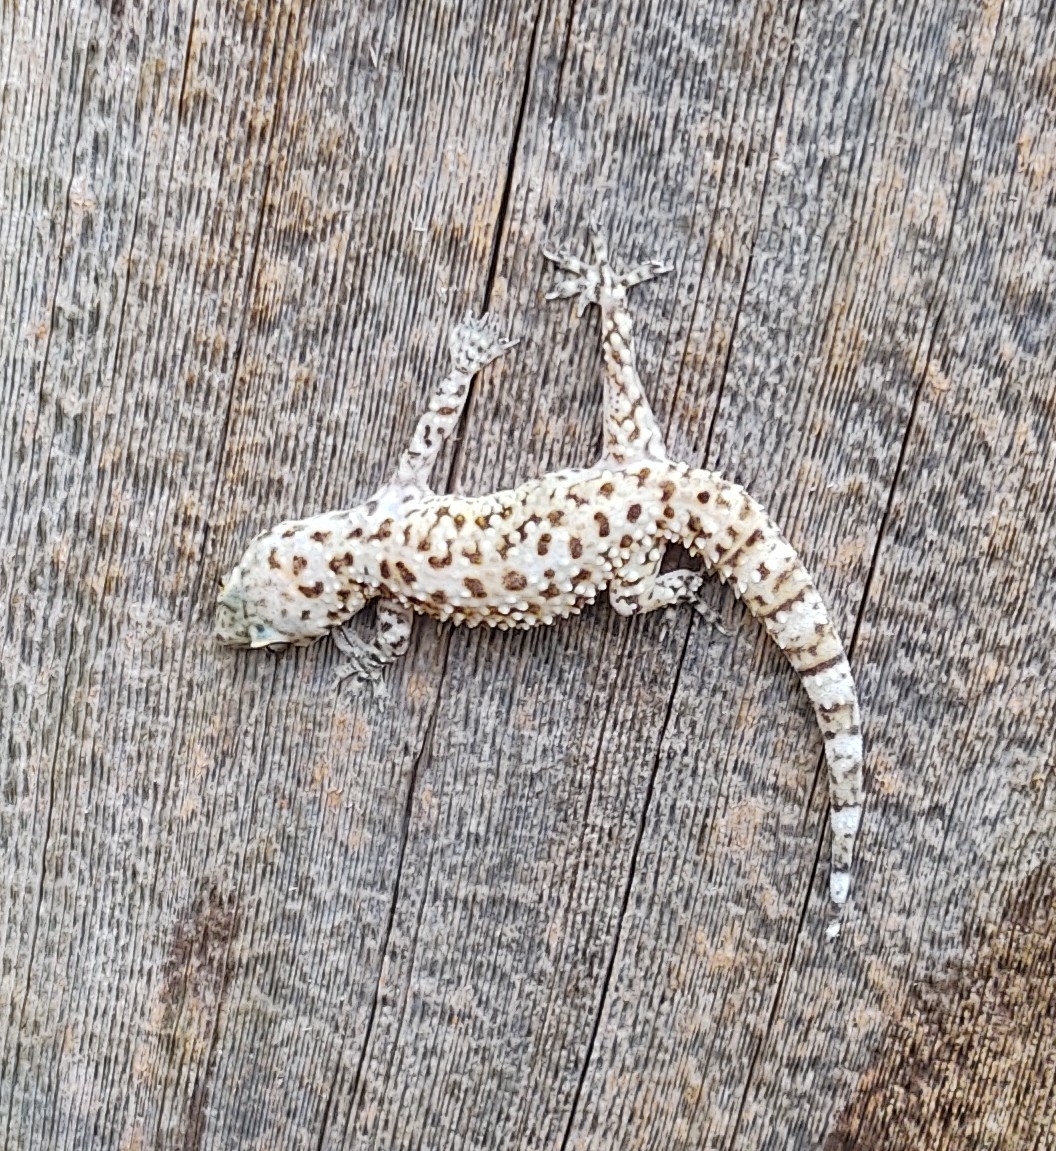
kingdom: Animalia
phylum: Chordata
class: Squamata
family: Gekkonidae
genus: Hemidactylus
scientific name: Hemidactylus turcicus
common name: Turkish gecko
